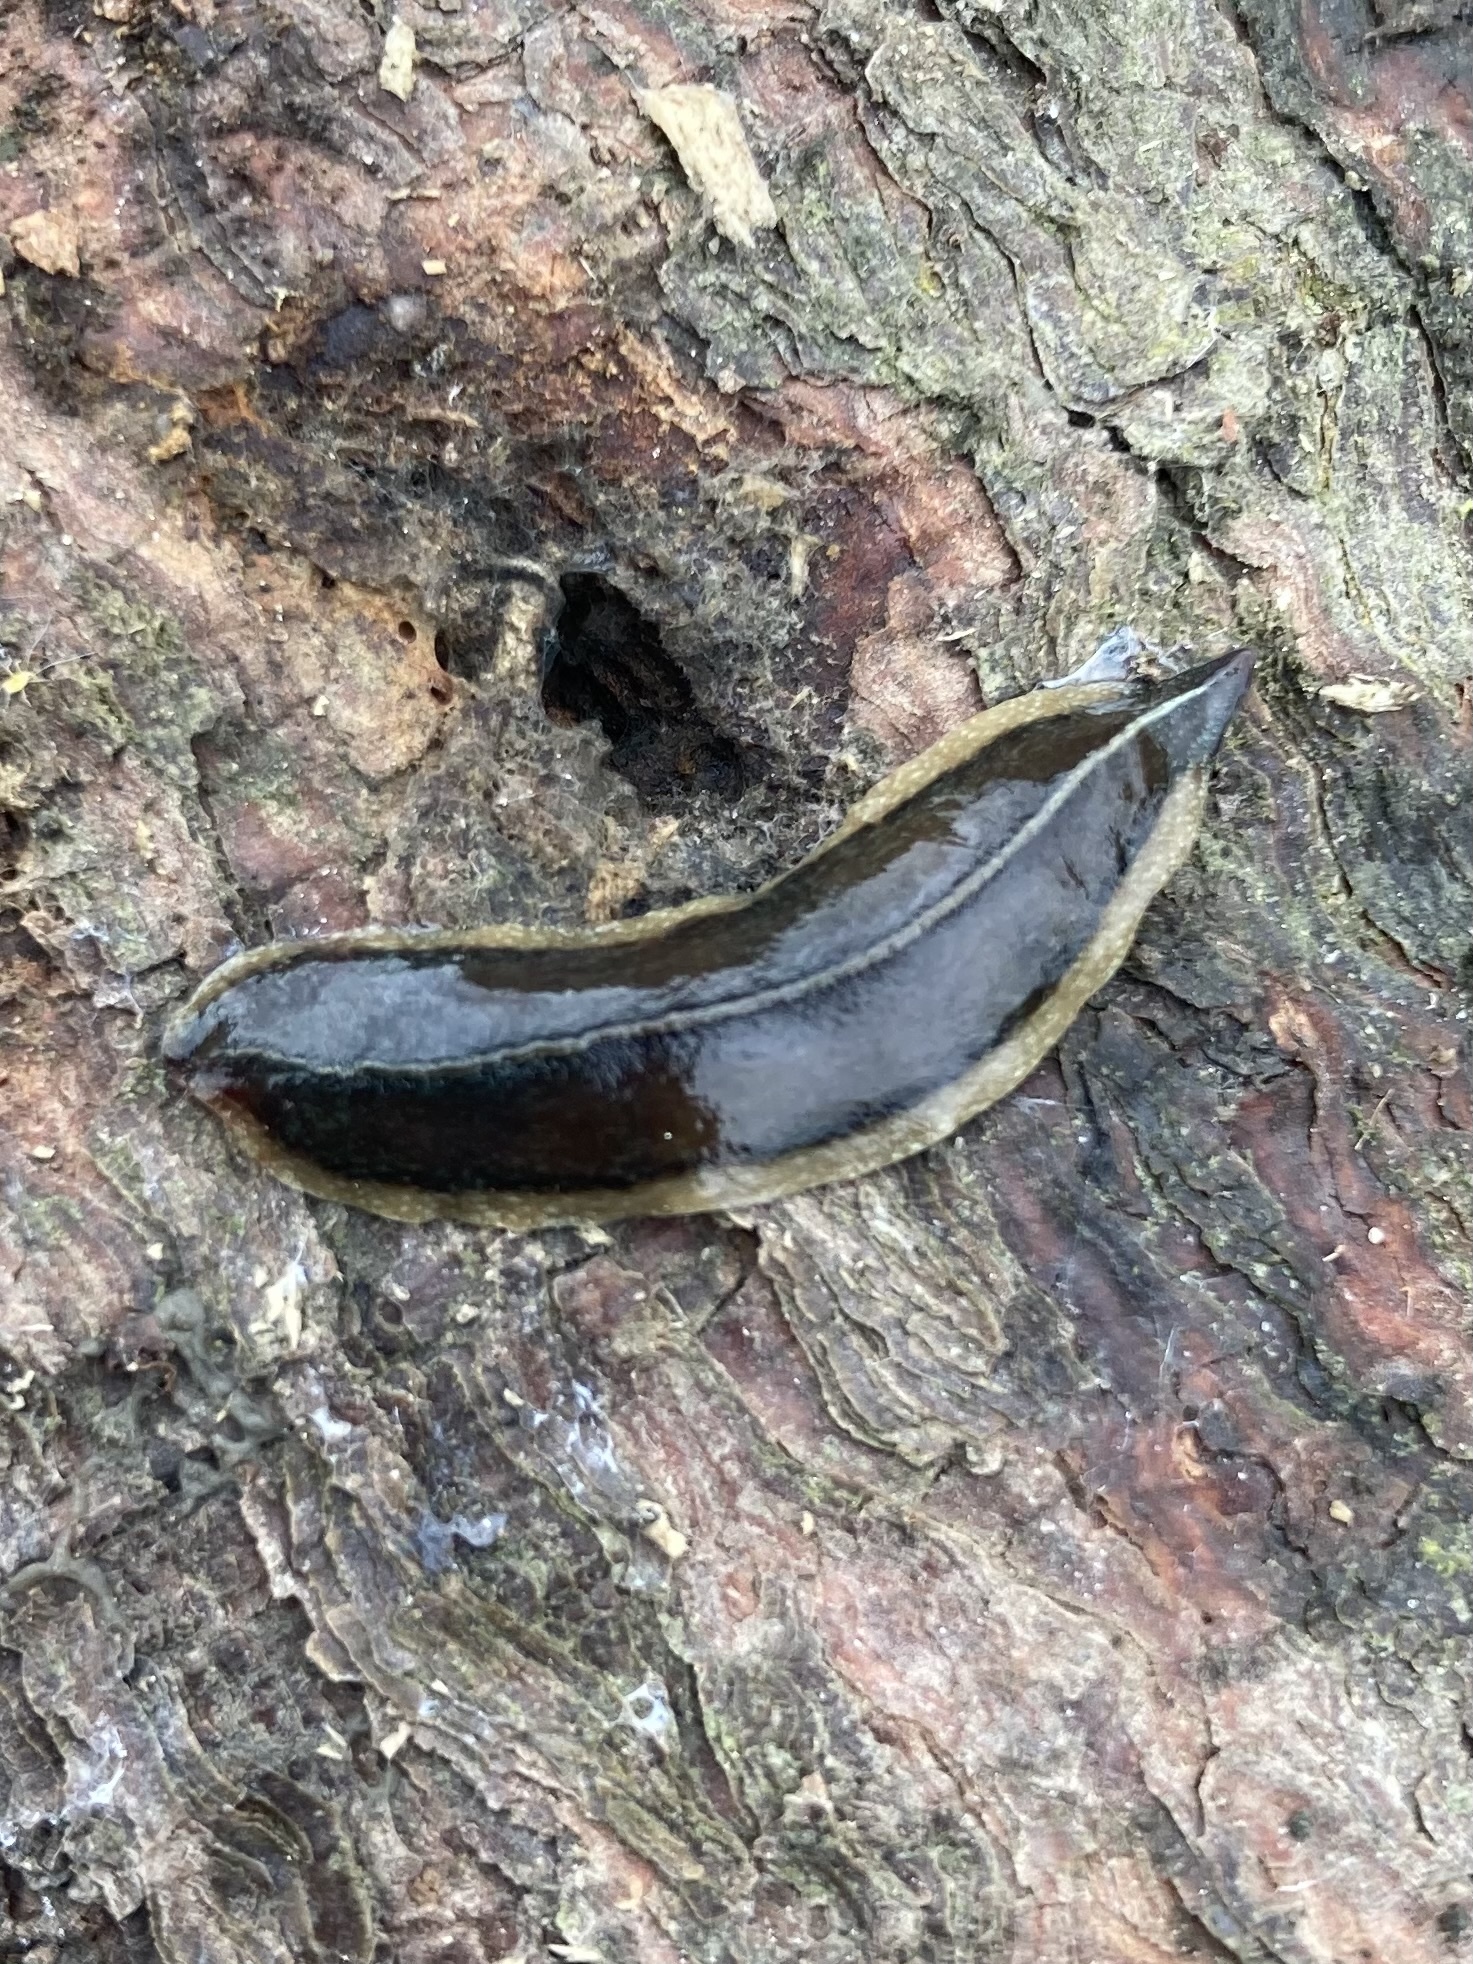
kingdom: Animalia
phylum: Platyhelminthes
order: Tricladida
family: Geoplanidae
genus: Newzealandia
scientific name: Newzealandia graffii
